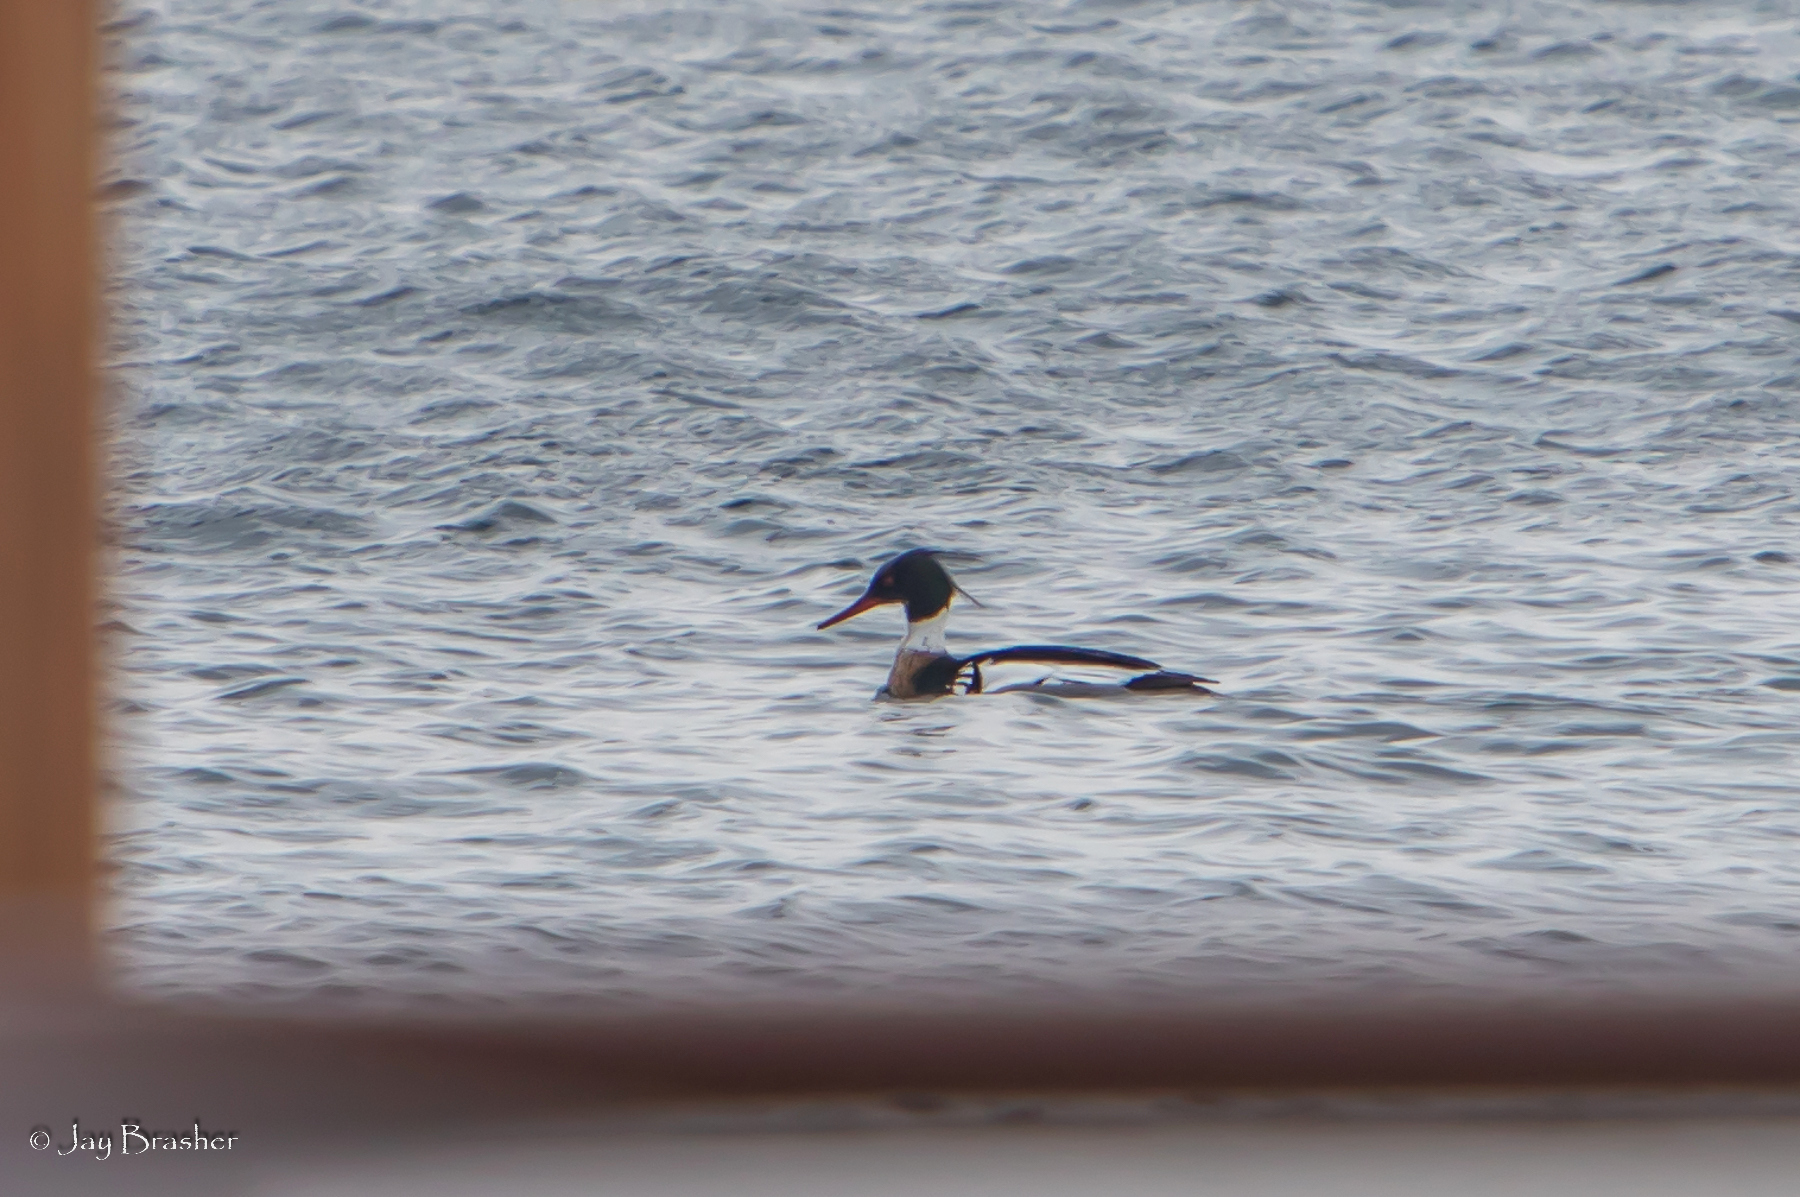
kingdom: Animalia
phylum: Chordata
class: Aves
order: Anseriformes
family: Anatidae
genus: Mergus
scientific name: Mergus serrator
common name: Red-breasted merganser
